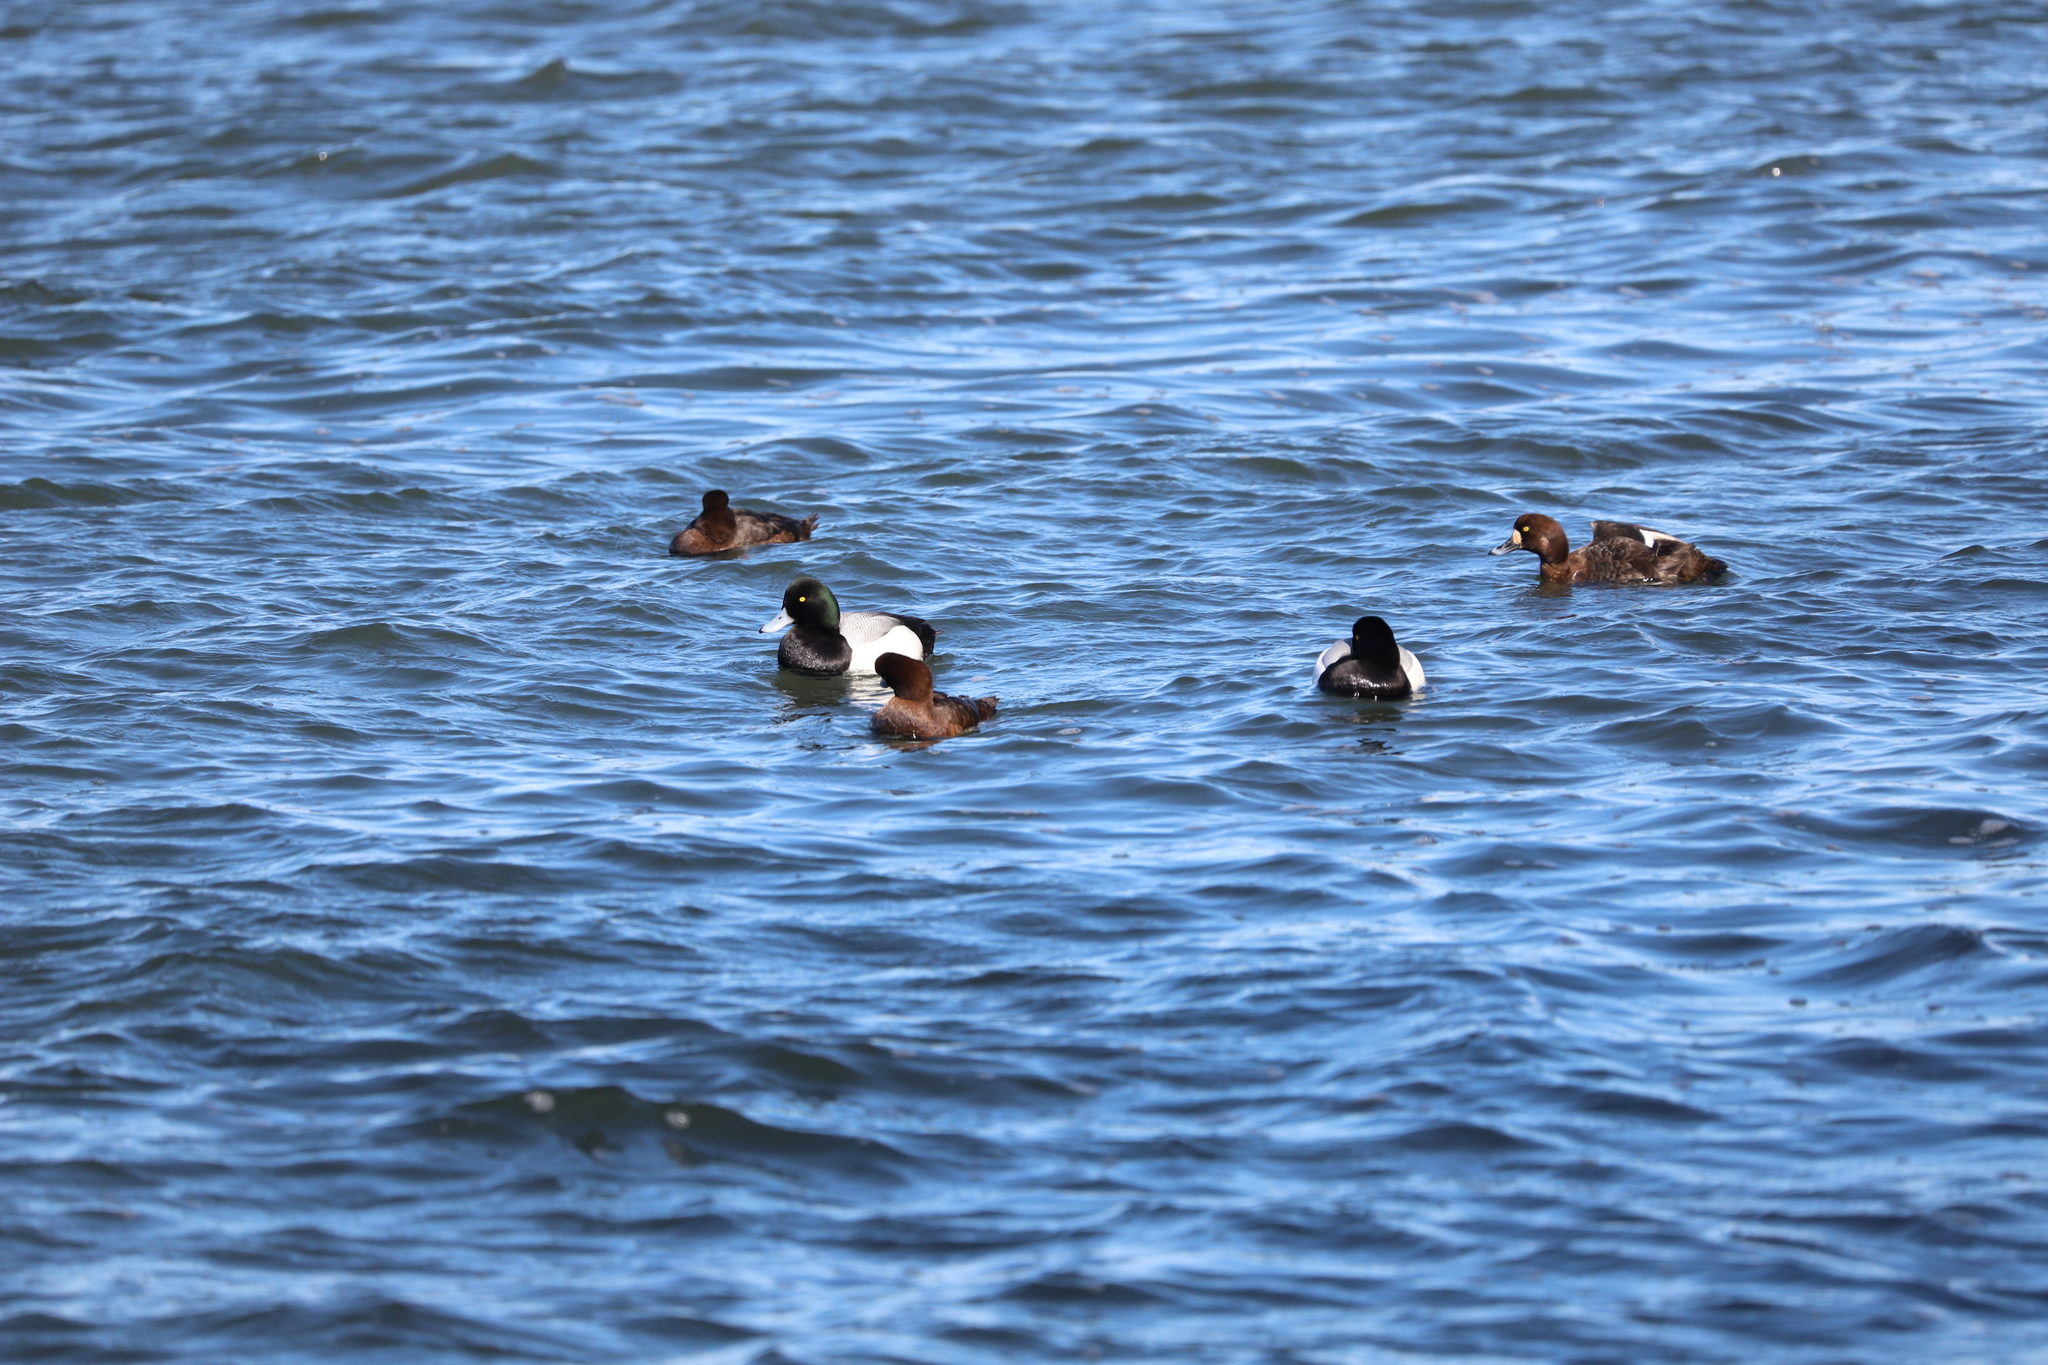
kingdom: Animalia
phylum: Chordata
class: Aves
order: Anseriformes
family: Anatidae
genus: Aythya
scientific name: Aythya marila
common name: Greater scaup
